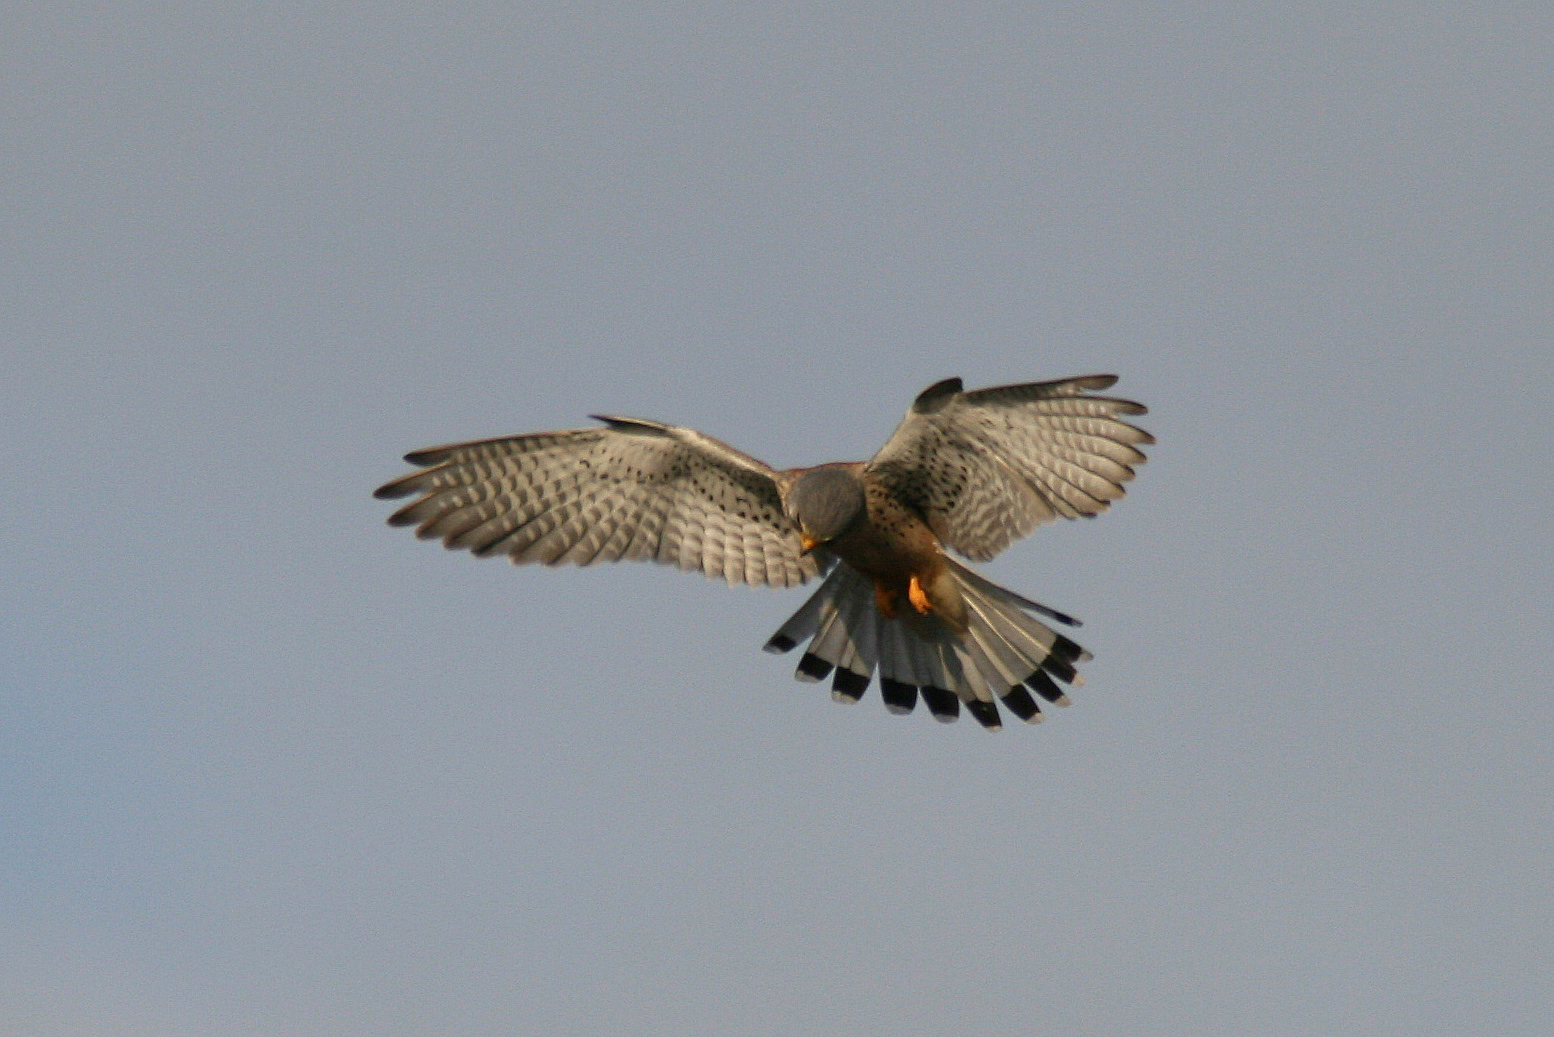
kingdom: Animalia
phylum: Chordata
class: Aves
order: Falconiformes
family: Falconidae
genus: Falco
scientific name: Falco tinnunculus
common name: Common kestrel
